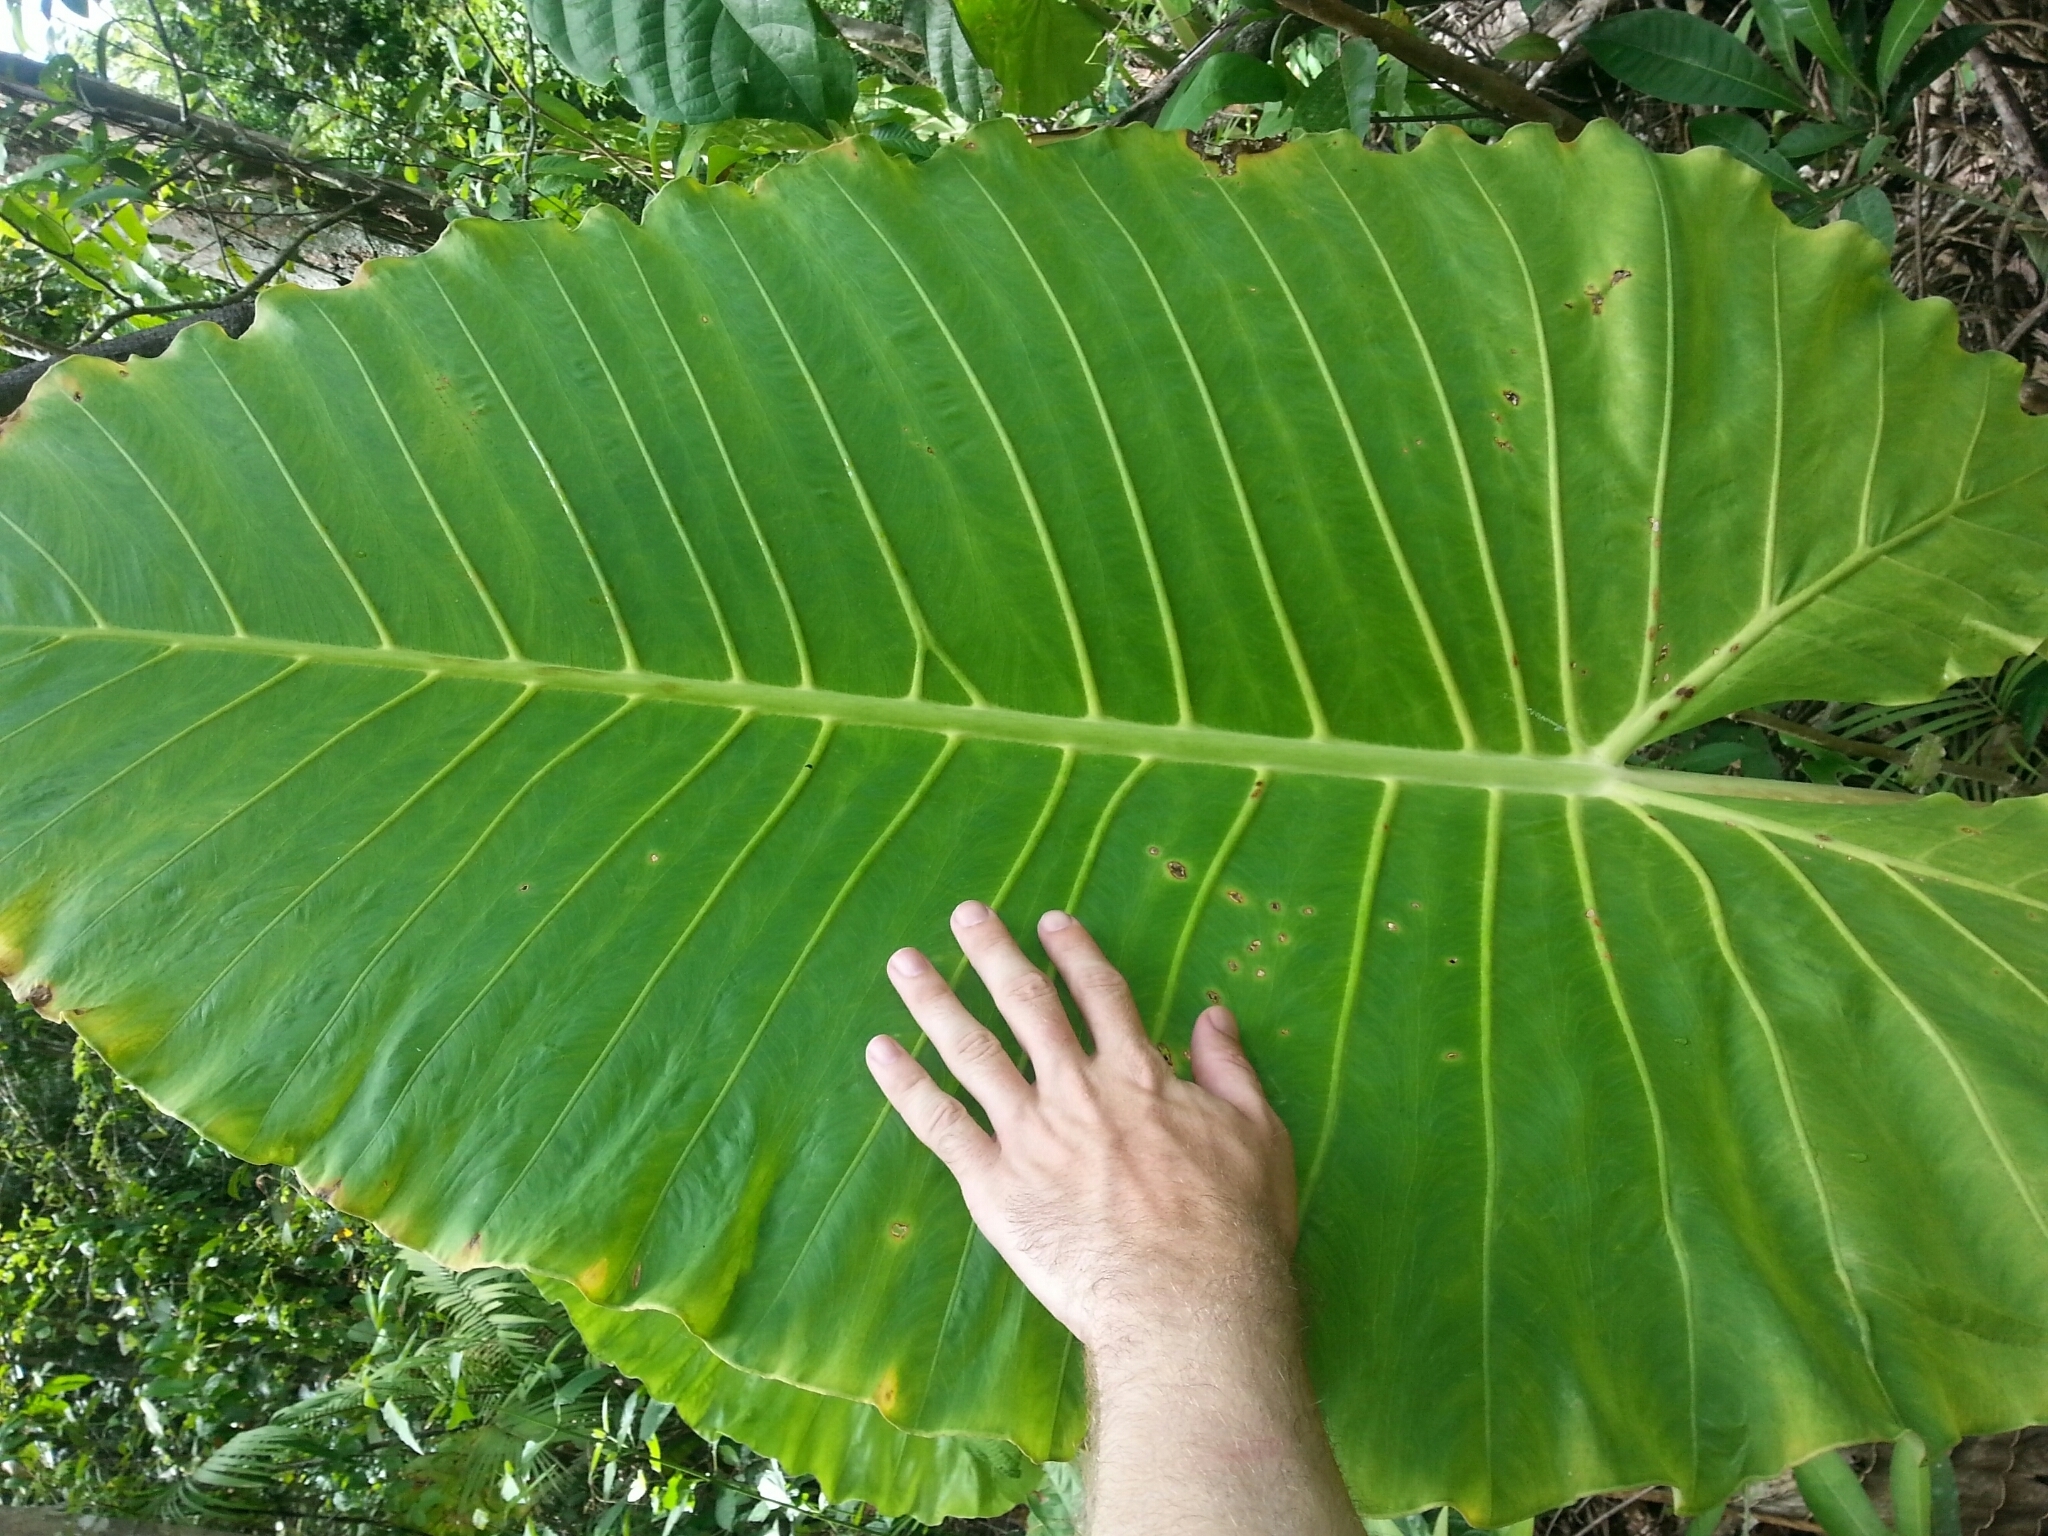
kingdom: Plantae
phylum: Tracheophyta
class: Liliopsida
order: Alismatales
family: Araceae
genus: Alocasia
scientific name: Alocasia macrorrhizos
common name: Giant taro
